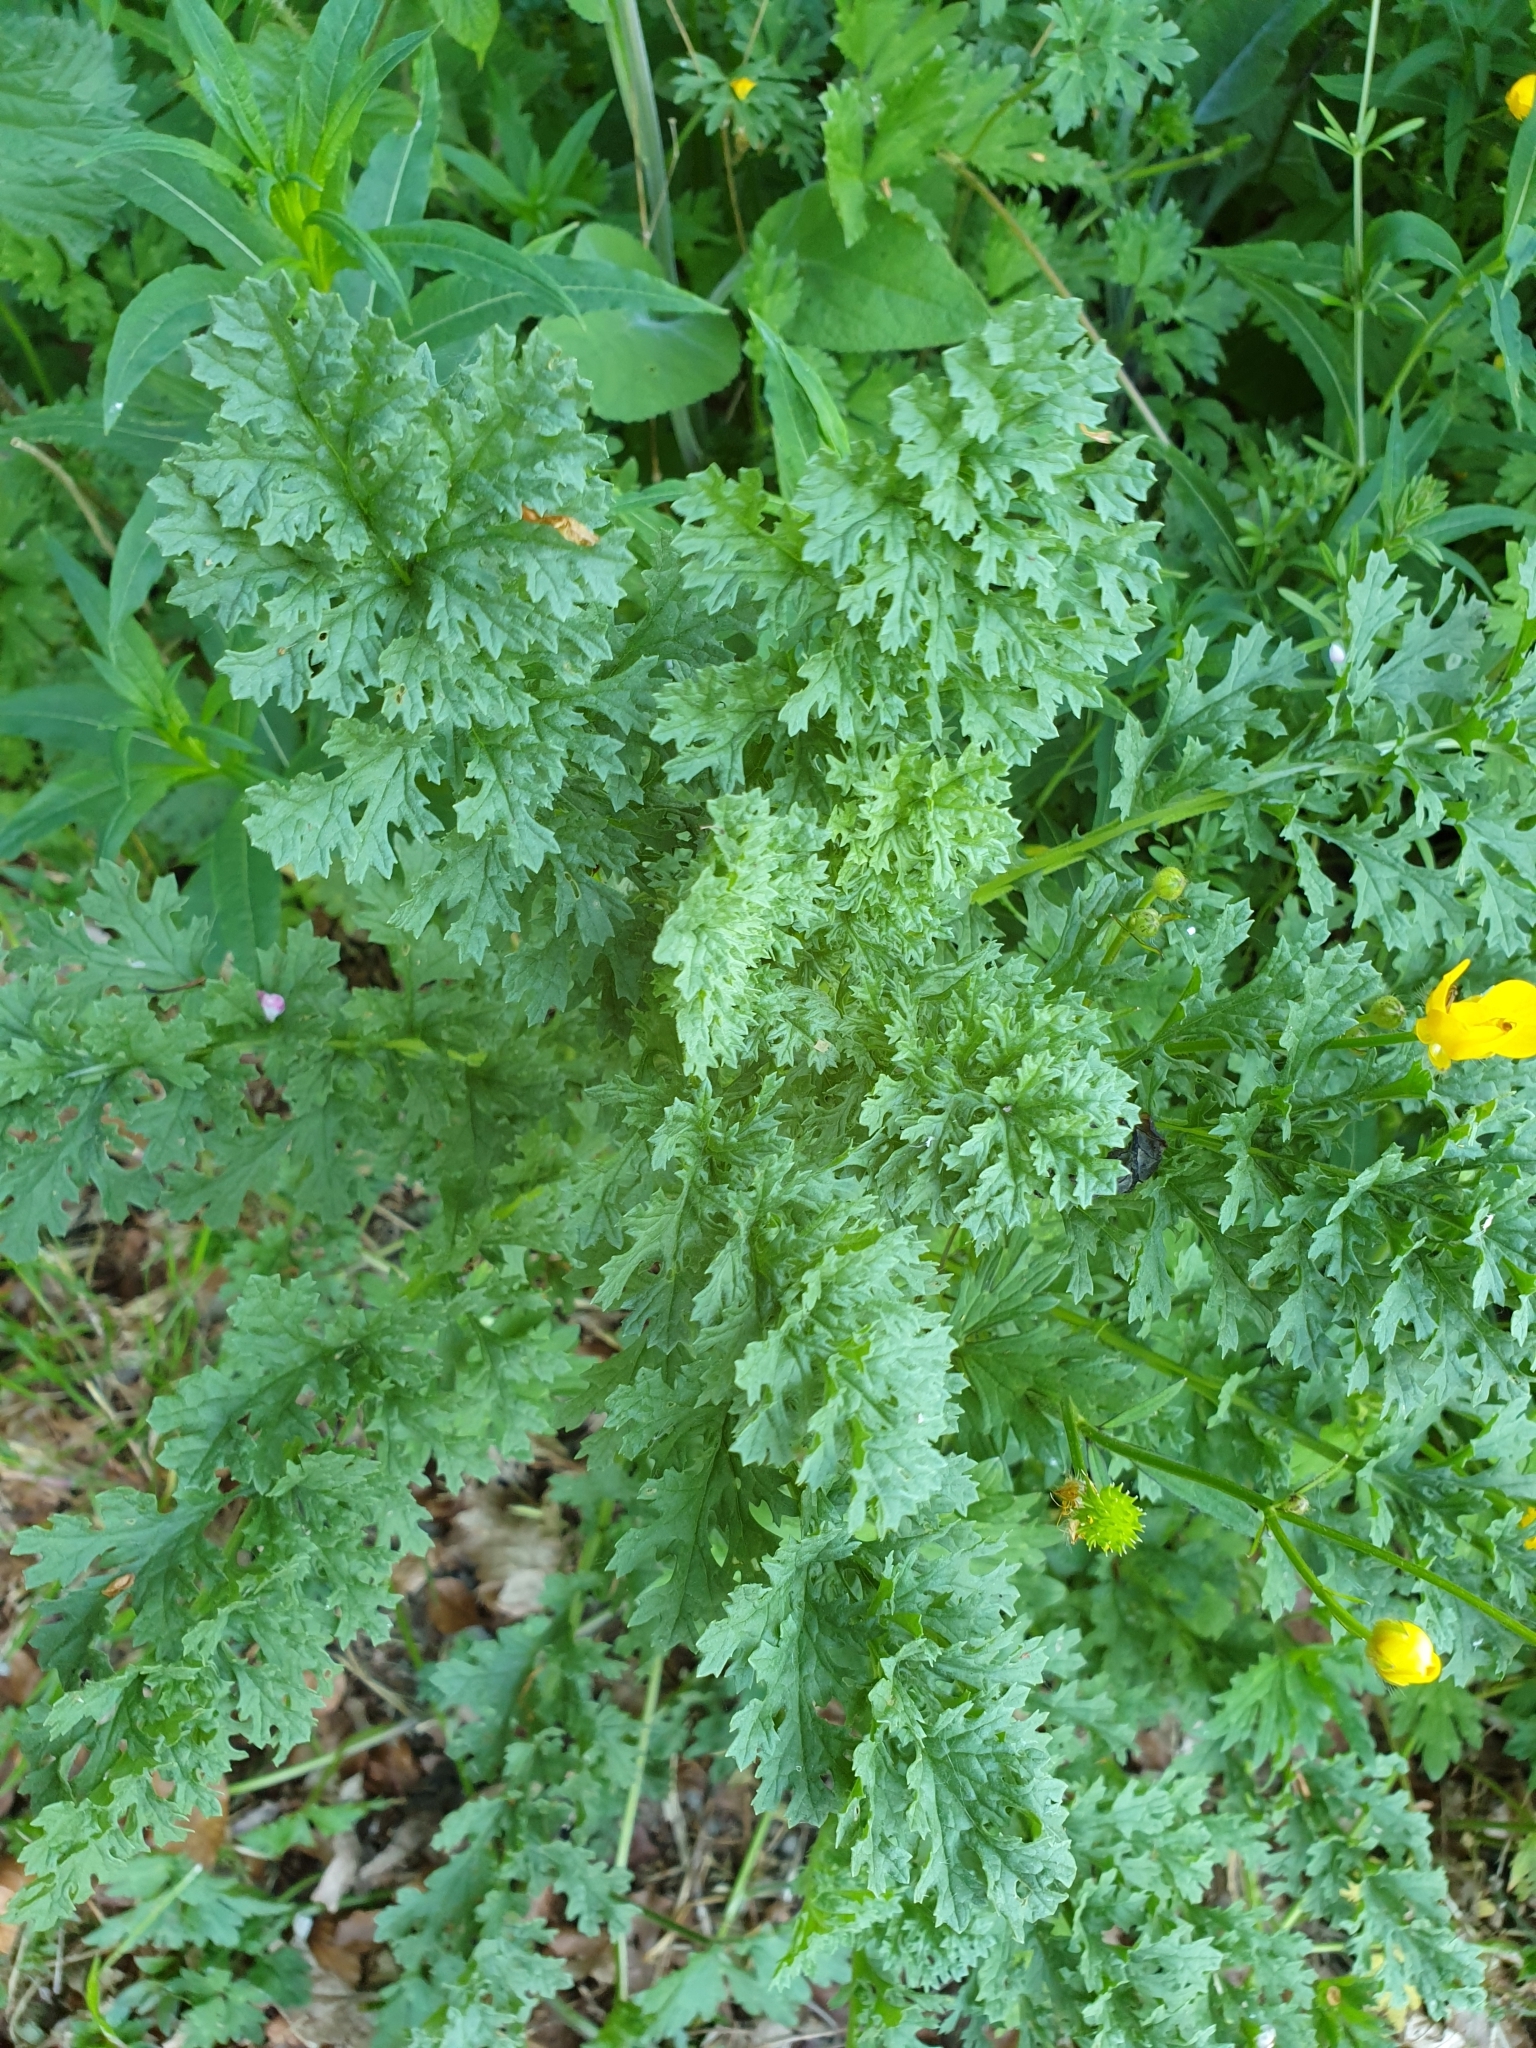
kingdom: Plantae
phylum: Tracheophyta
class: Magnoliopsida
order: Asterales
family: Asteraceae
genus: Jacobaea
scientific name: Jacobaea vulgaris
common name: Stinking willie
